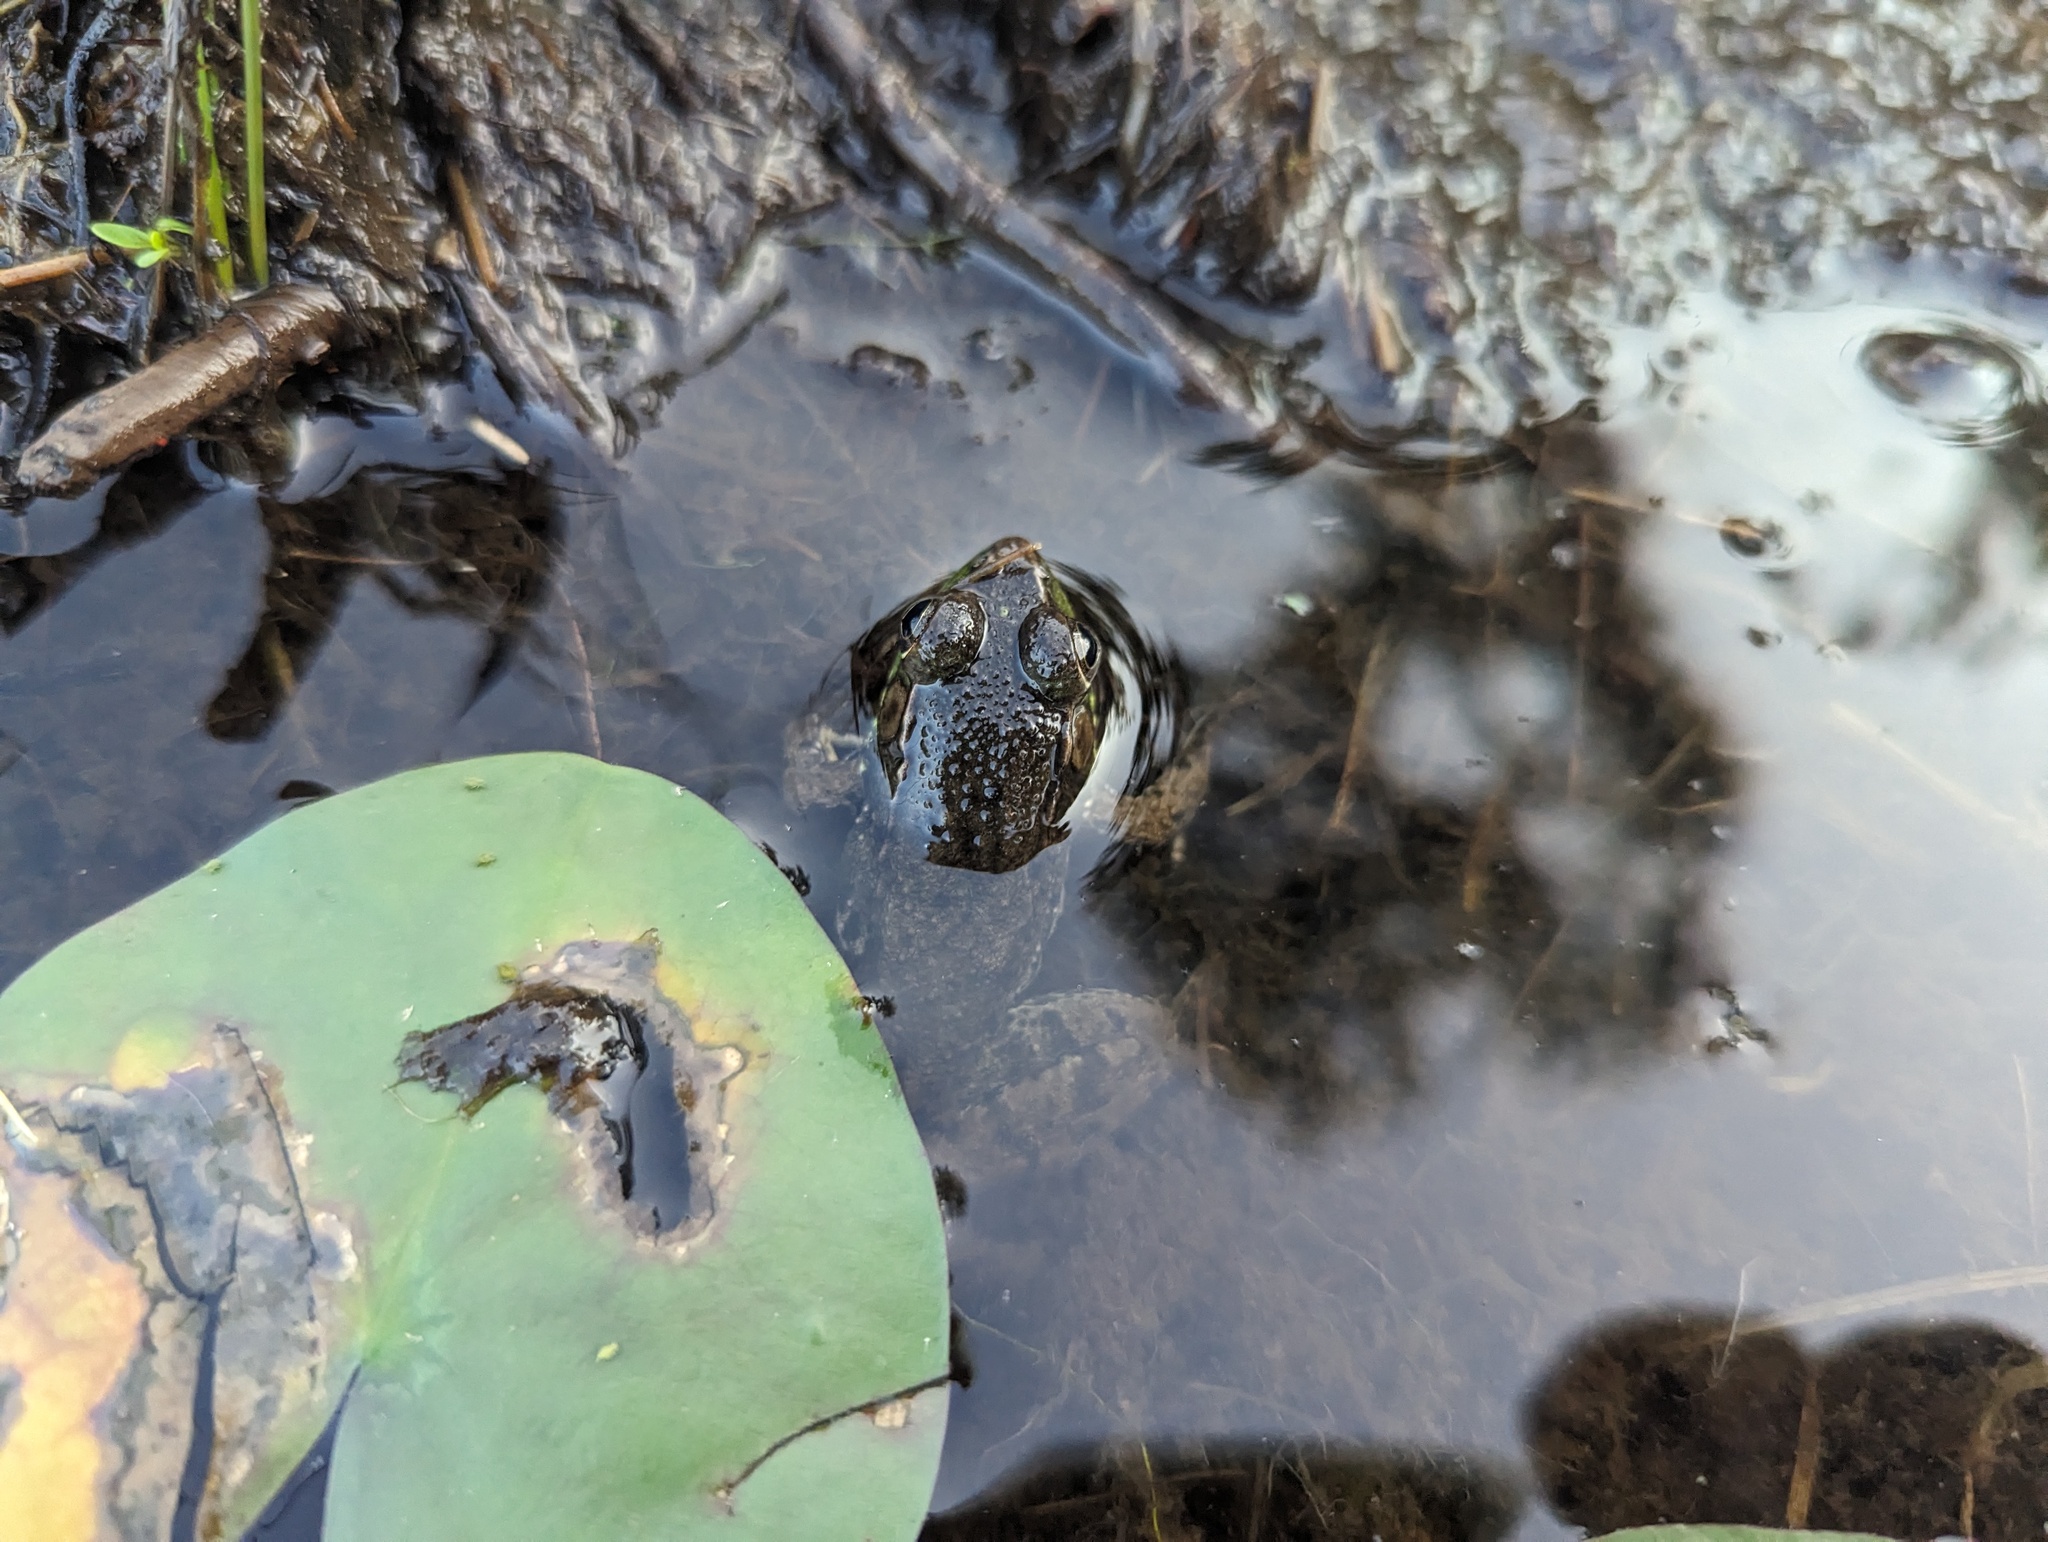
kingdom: Animalia
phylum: Chordata
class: Amphibia
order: Anura
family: Ranidae
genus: Lithobates
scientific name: Lithobates clamitans
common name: Green frog
